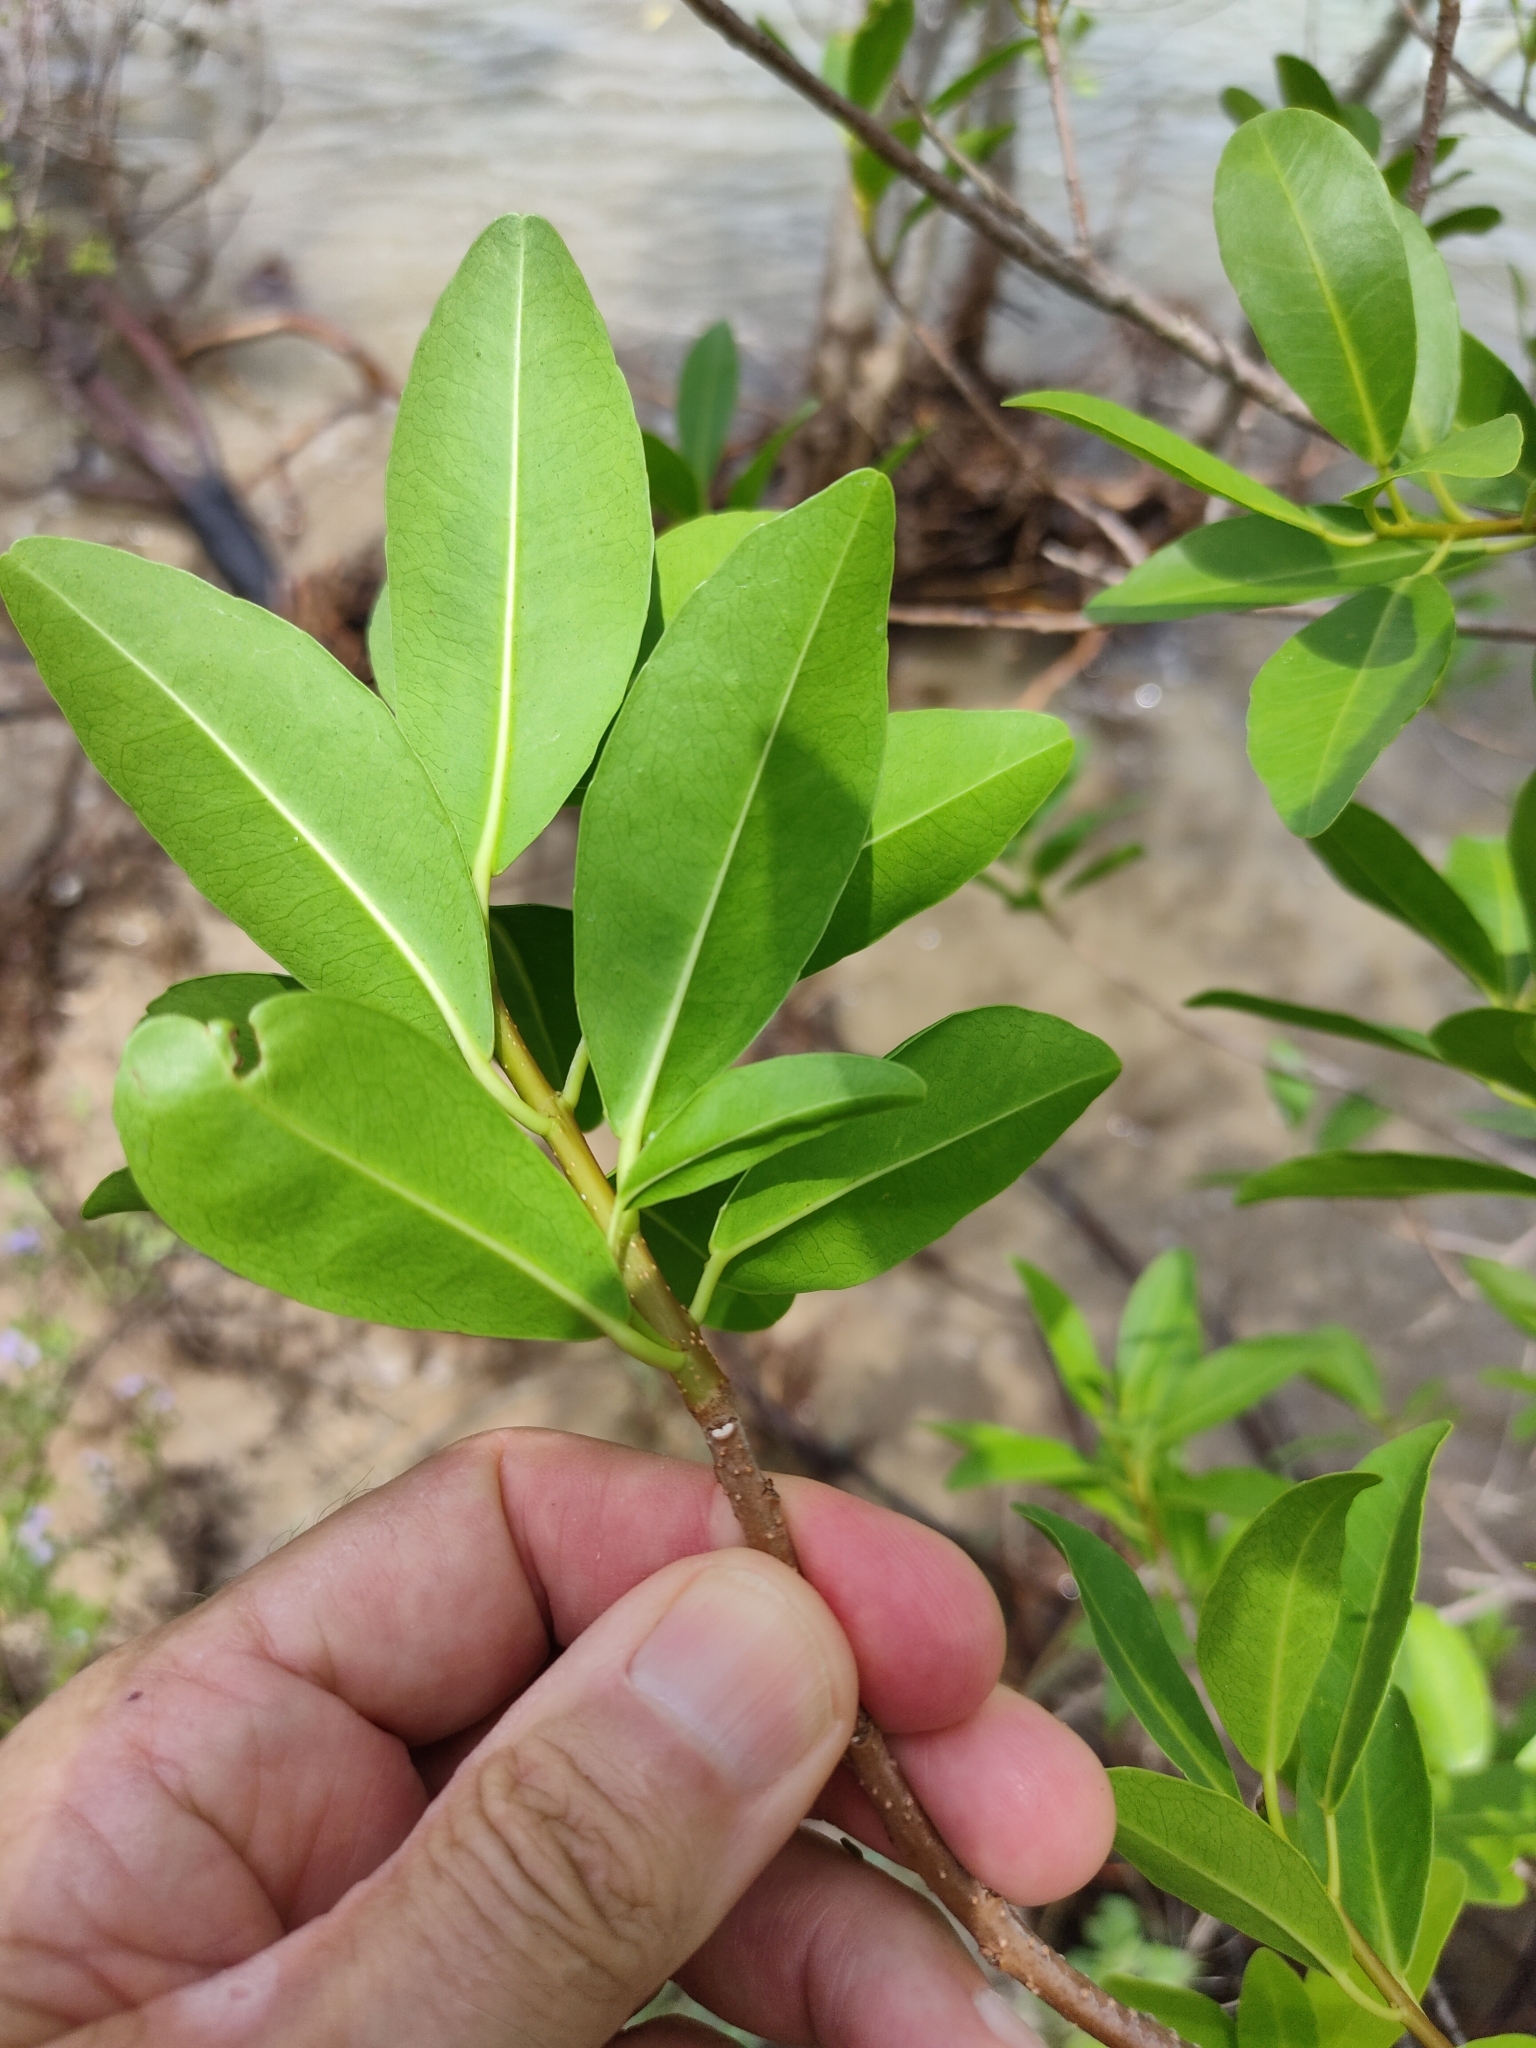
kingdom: Plantae
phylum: Tracheophyta
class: Magnoliopsida
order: Malpighiales
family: Euphorbiaceae
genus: Excoecaria
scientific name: Excoecaria agallocha
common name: River poisontree
